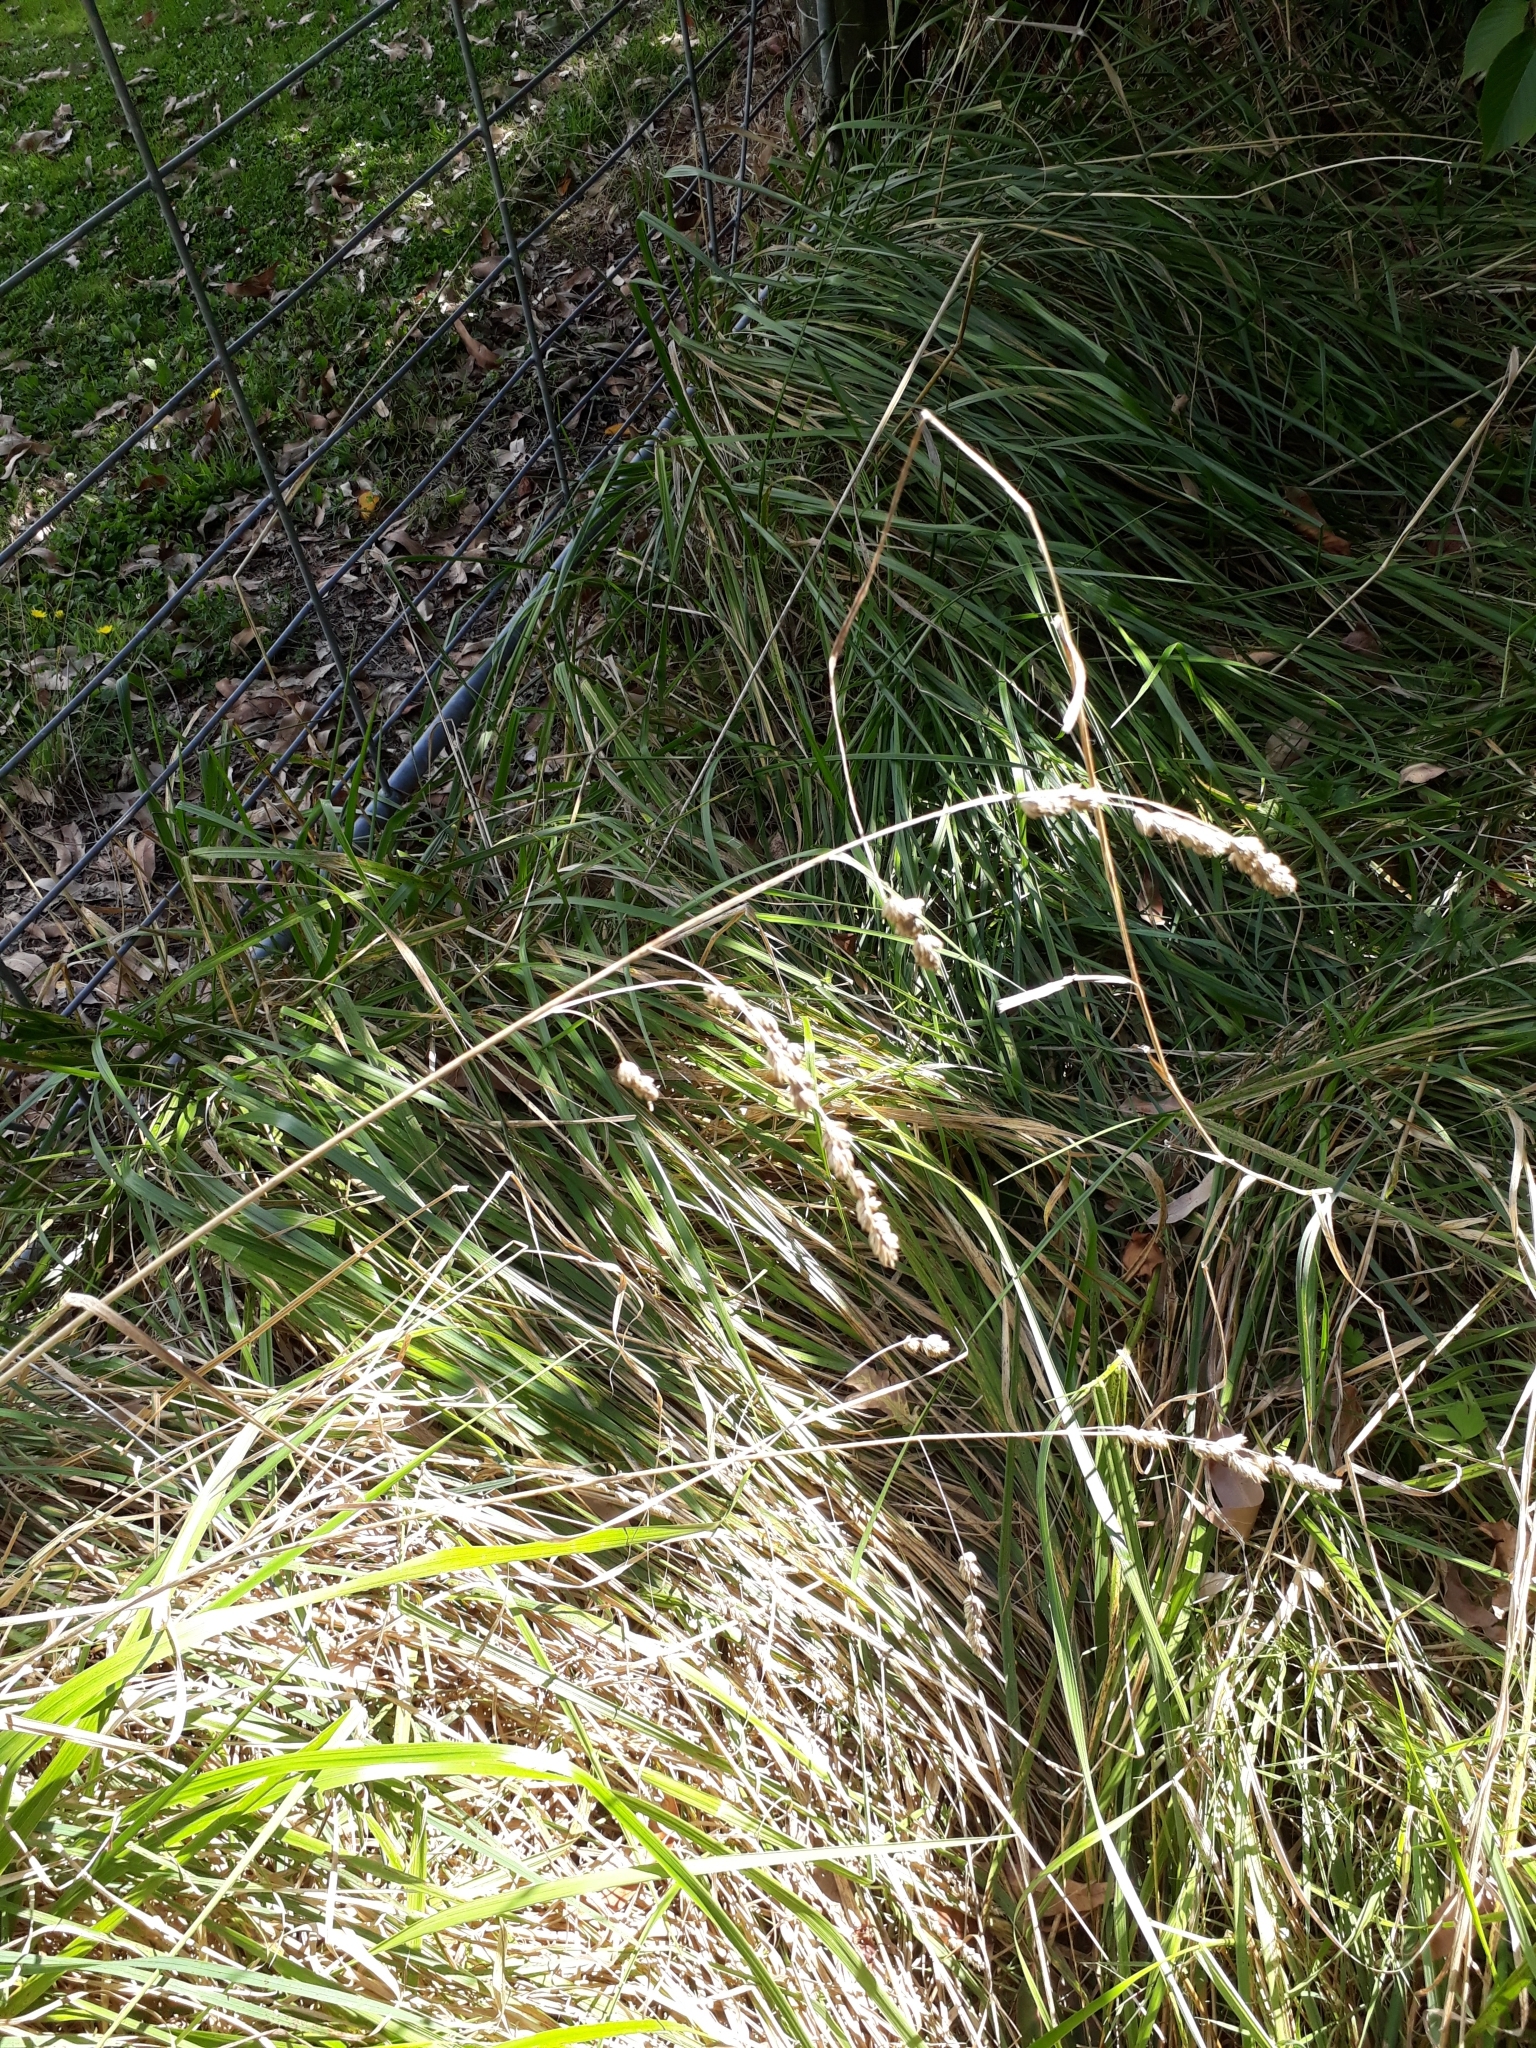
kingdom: Plantae
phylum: Tracheophyta
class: Liliopsida
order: Poales
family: Poaceae
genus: Lolium
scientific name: Lolium arundinaceum
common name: Reed fescue
